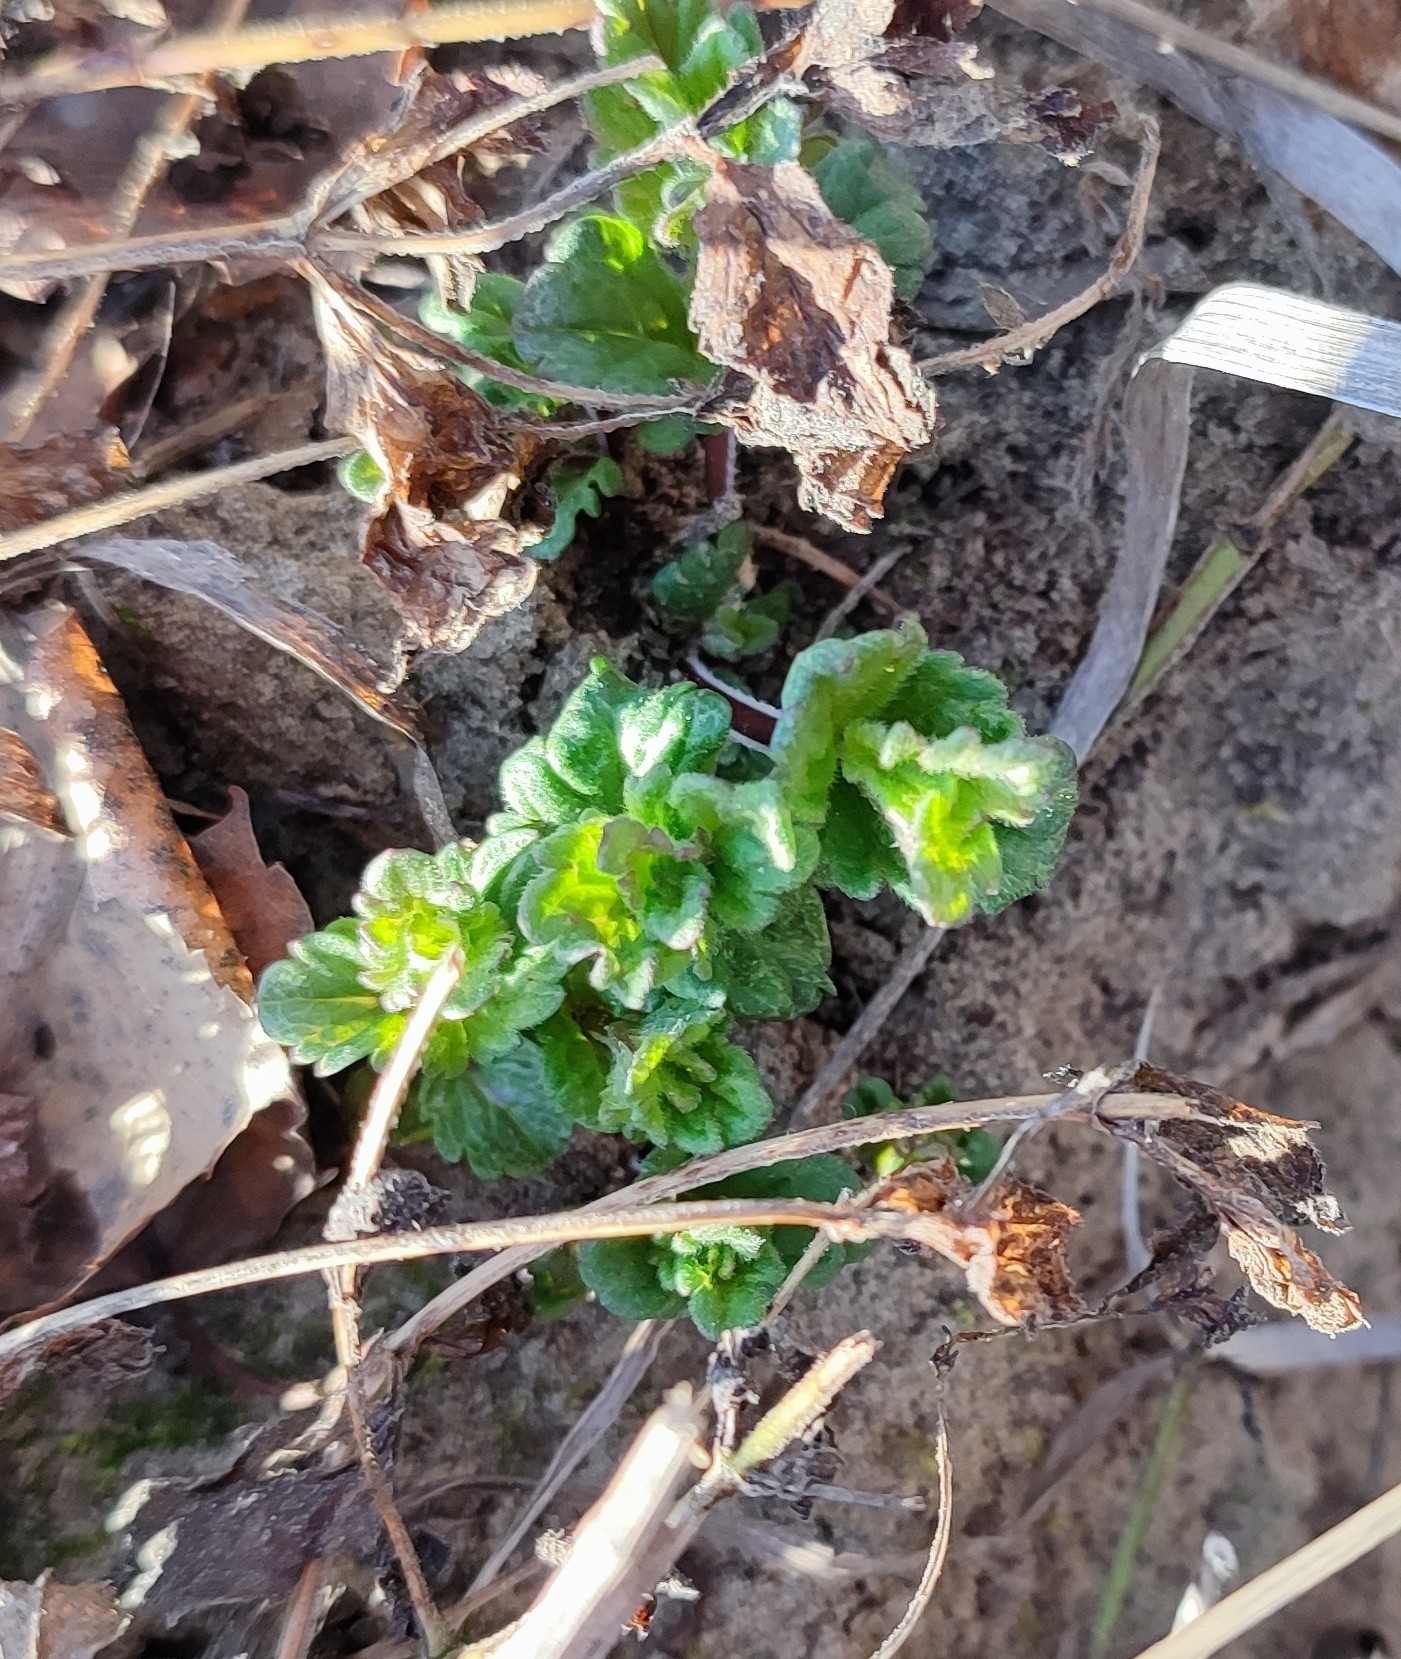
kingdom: Plantae
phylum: Tracheophyta
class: Magnoliopsida
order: Lamiales
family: Plantaginaceae
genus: Veronica
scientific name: Veronica chamaedrys
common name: Germander speedwell
